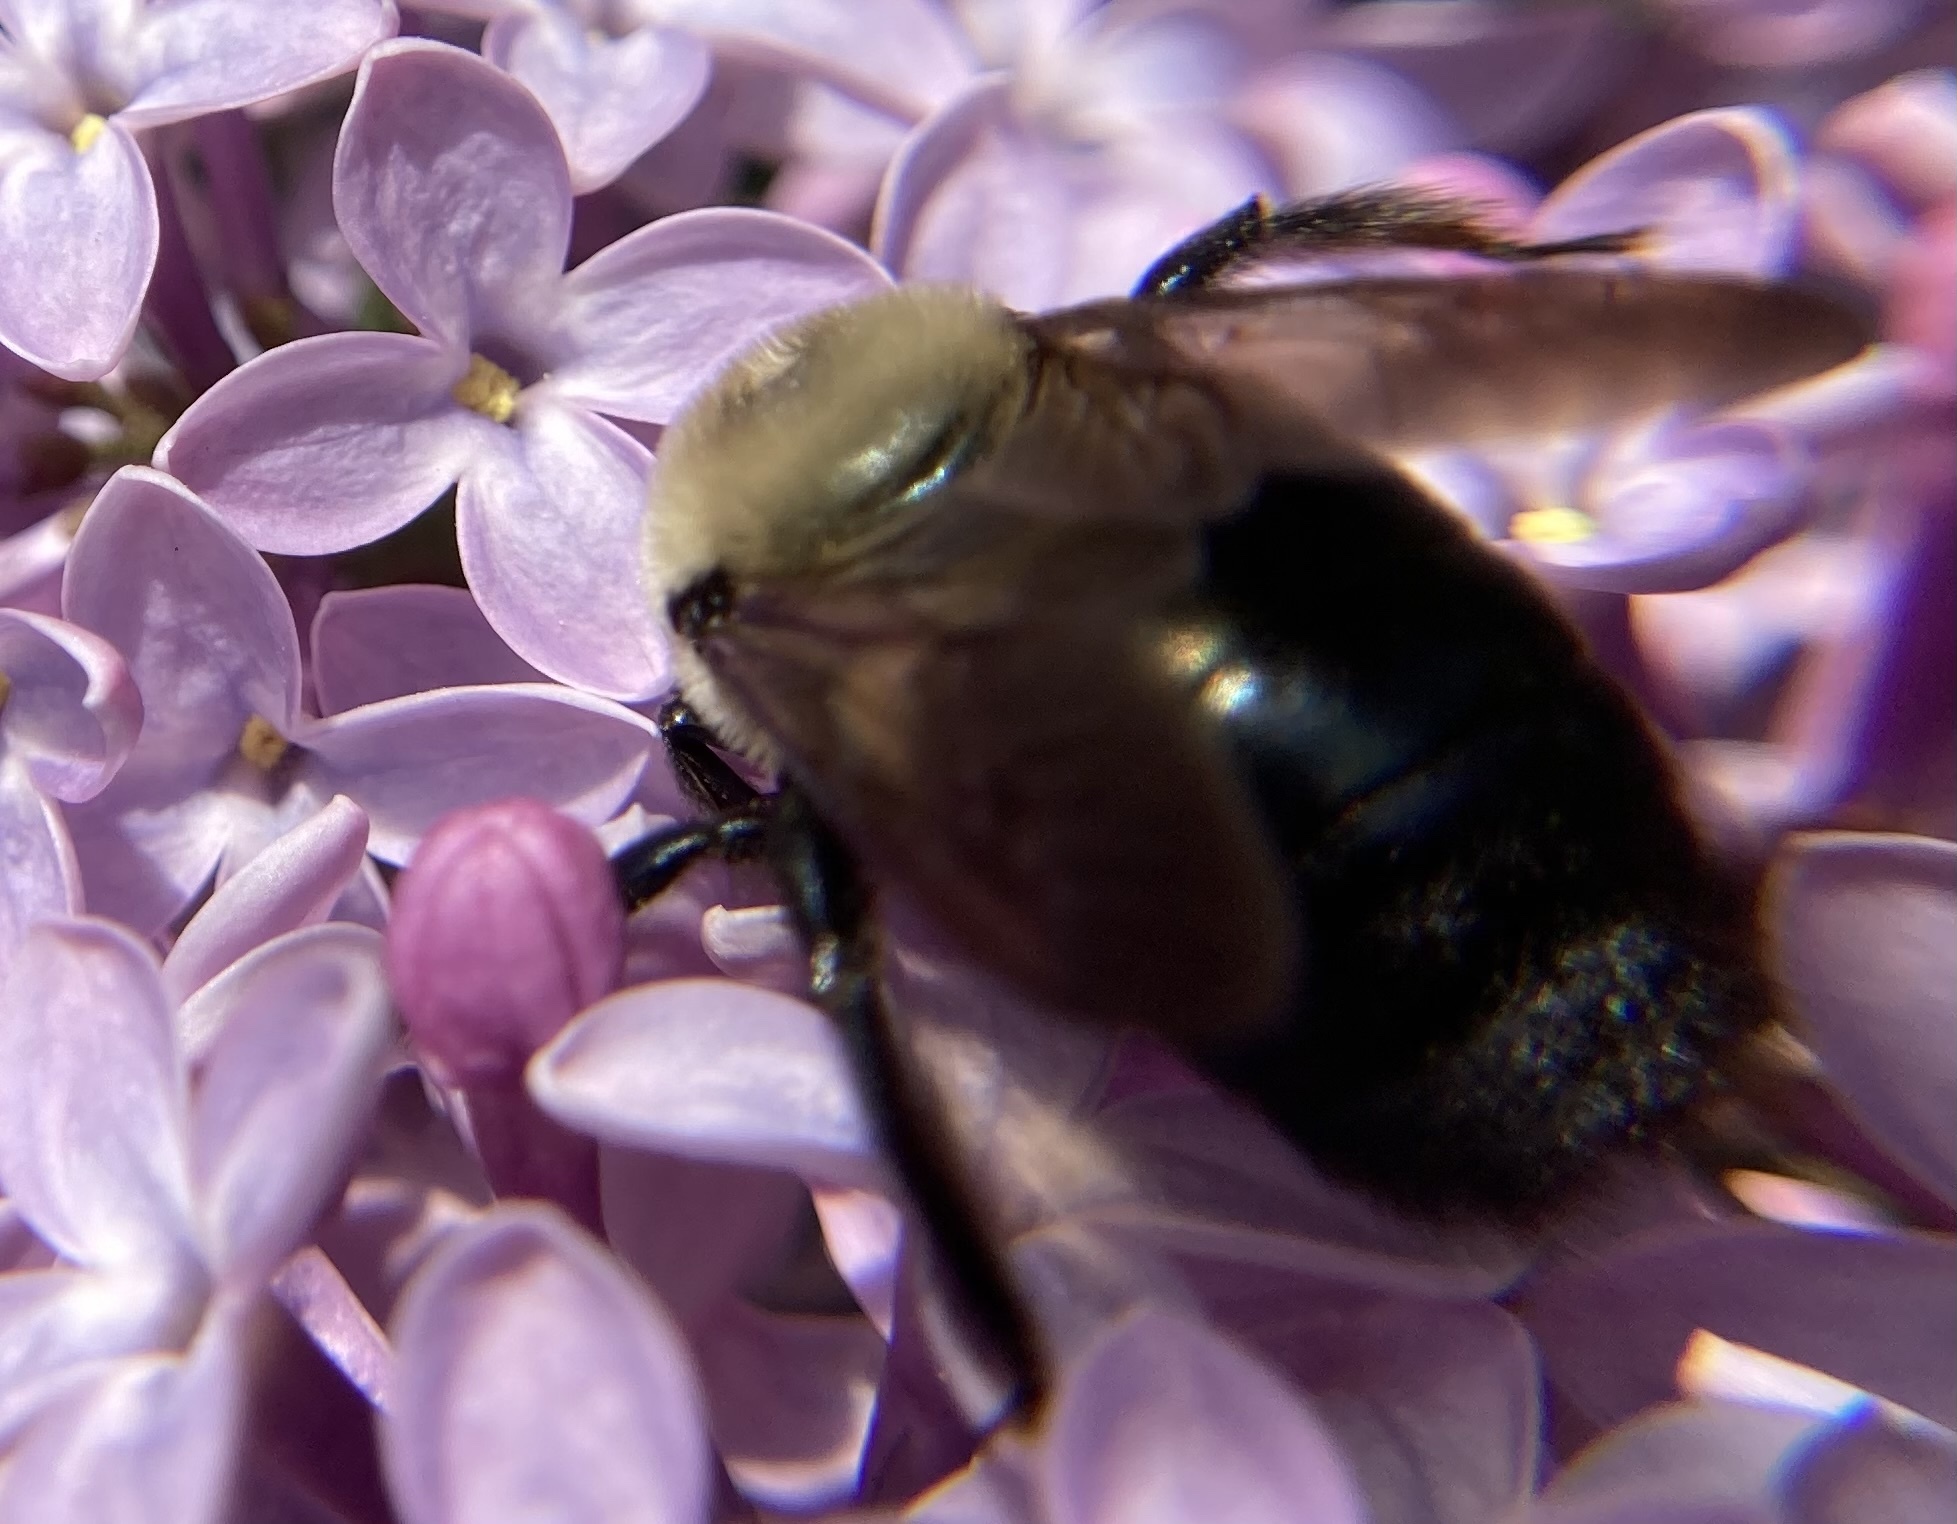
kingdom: Animalia
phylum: Arthropoda
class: Insecta
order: Hymenoptera
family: Apidae
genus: Xylocopa
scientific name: Xylocopa virginica
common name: Carpenter bee
